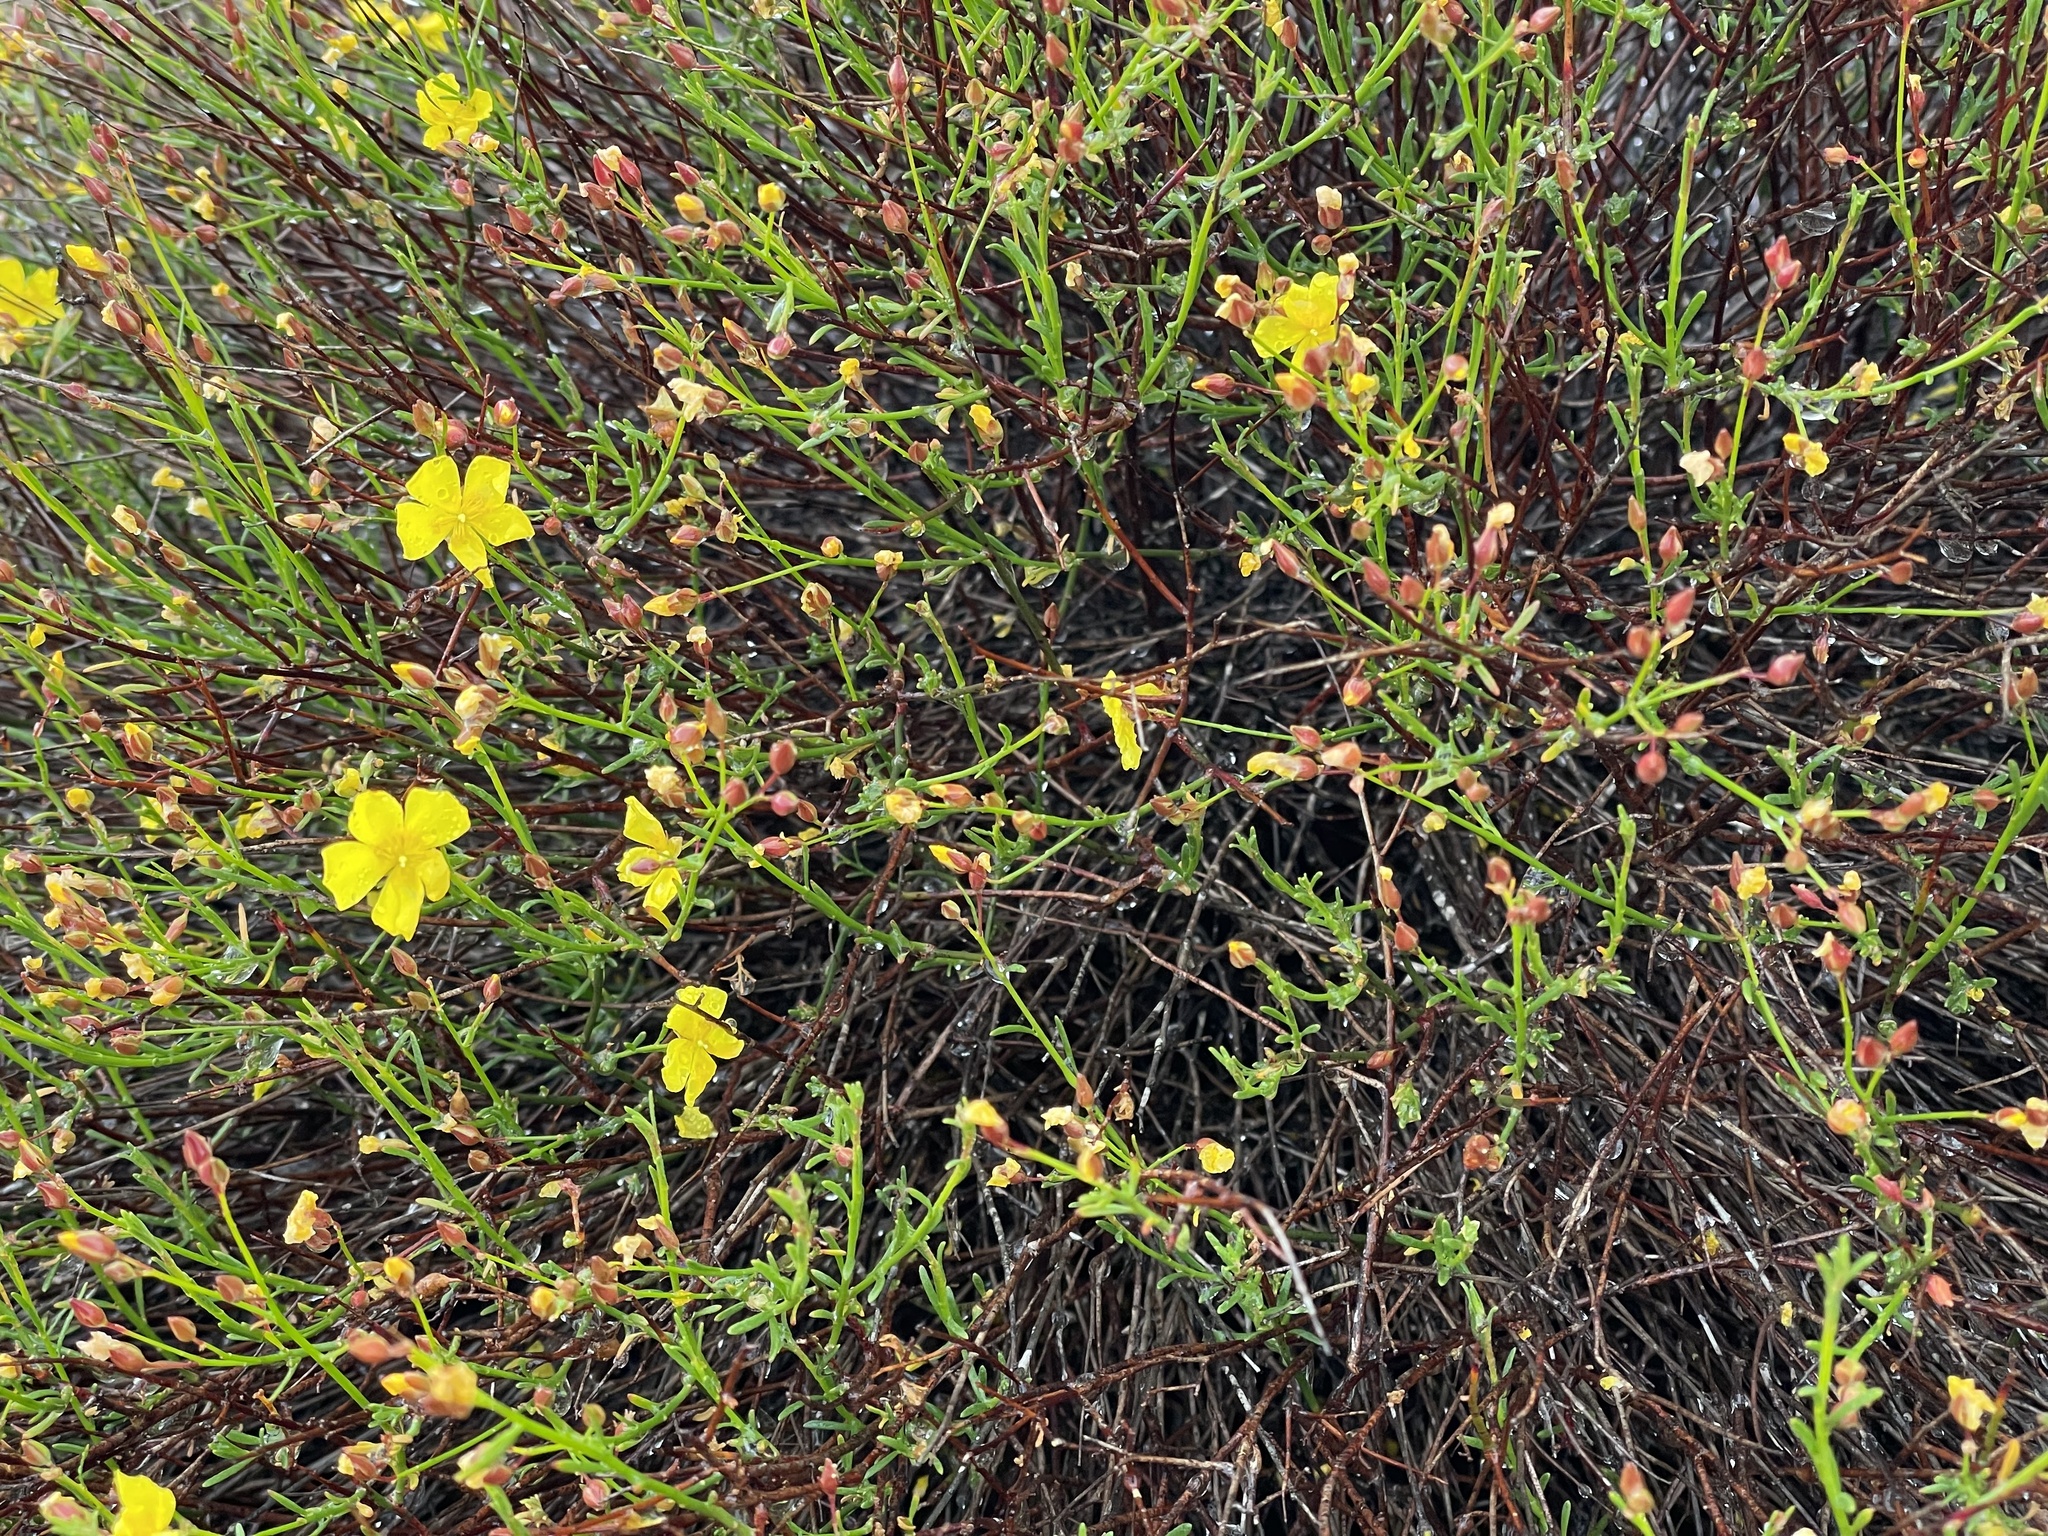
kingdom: Plantae
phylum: Tracheophyta
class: Magnoliopsida
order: Malvales
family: Cistaceae
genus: Crocanthemum
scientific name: Crocanthemum scoparium
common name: Broom-rose
